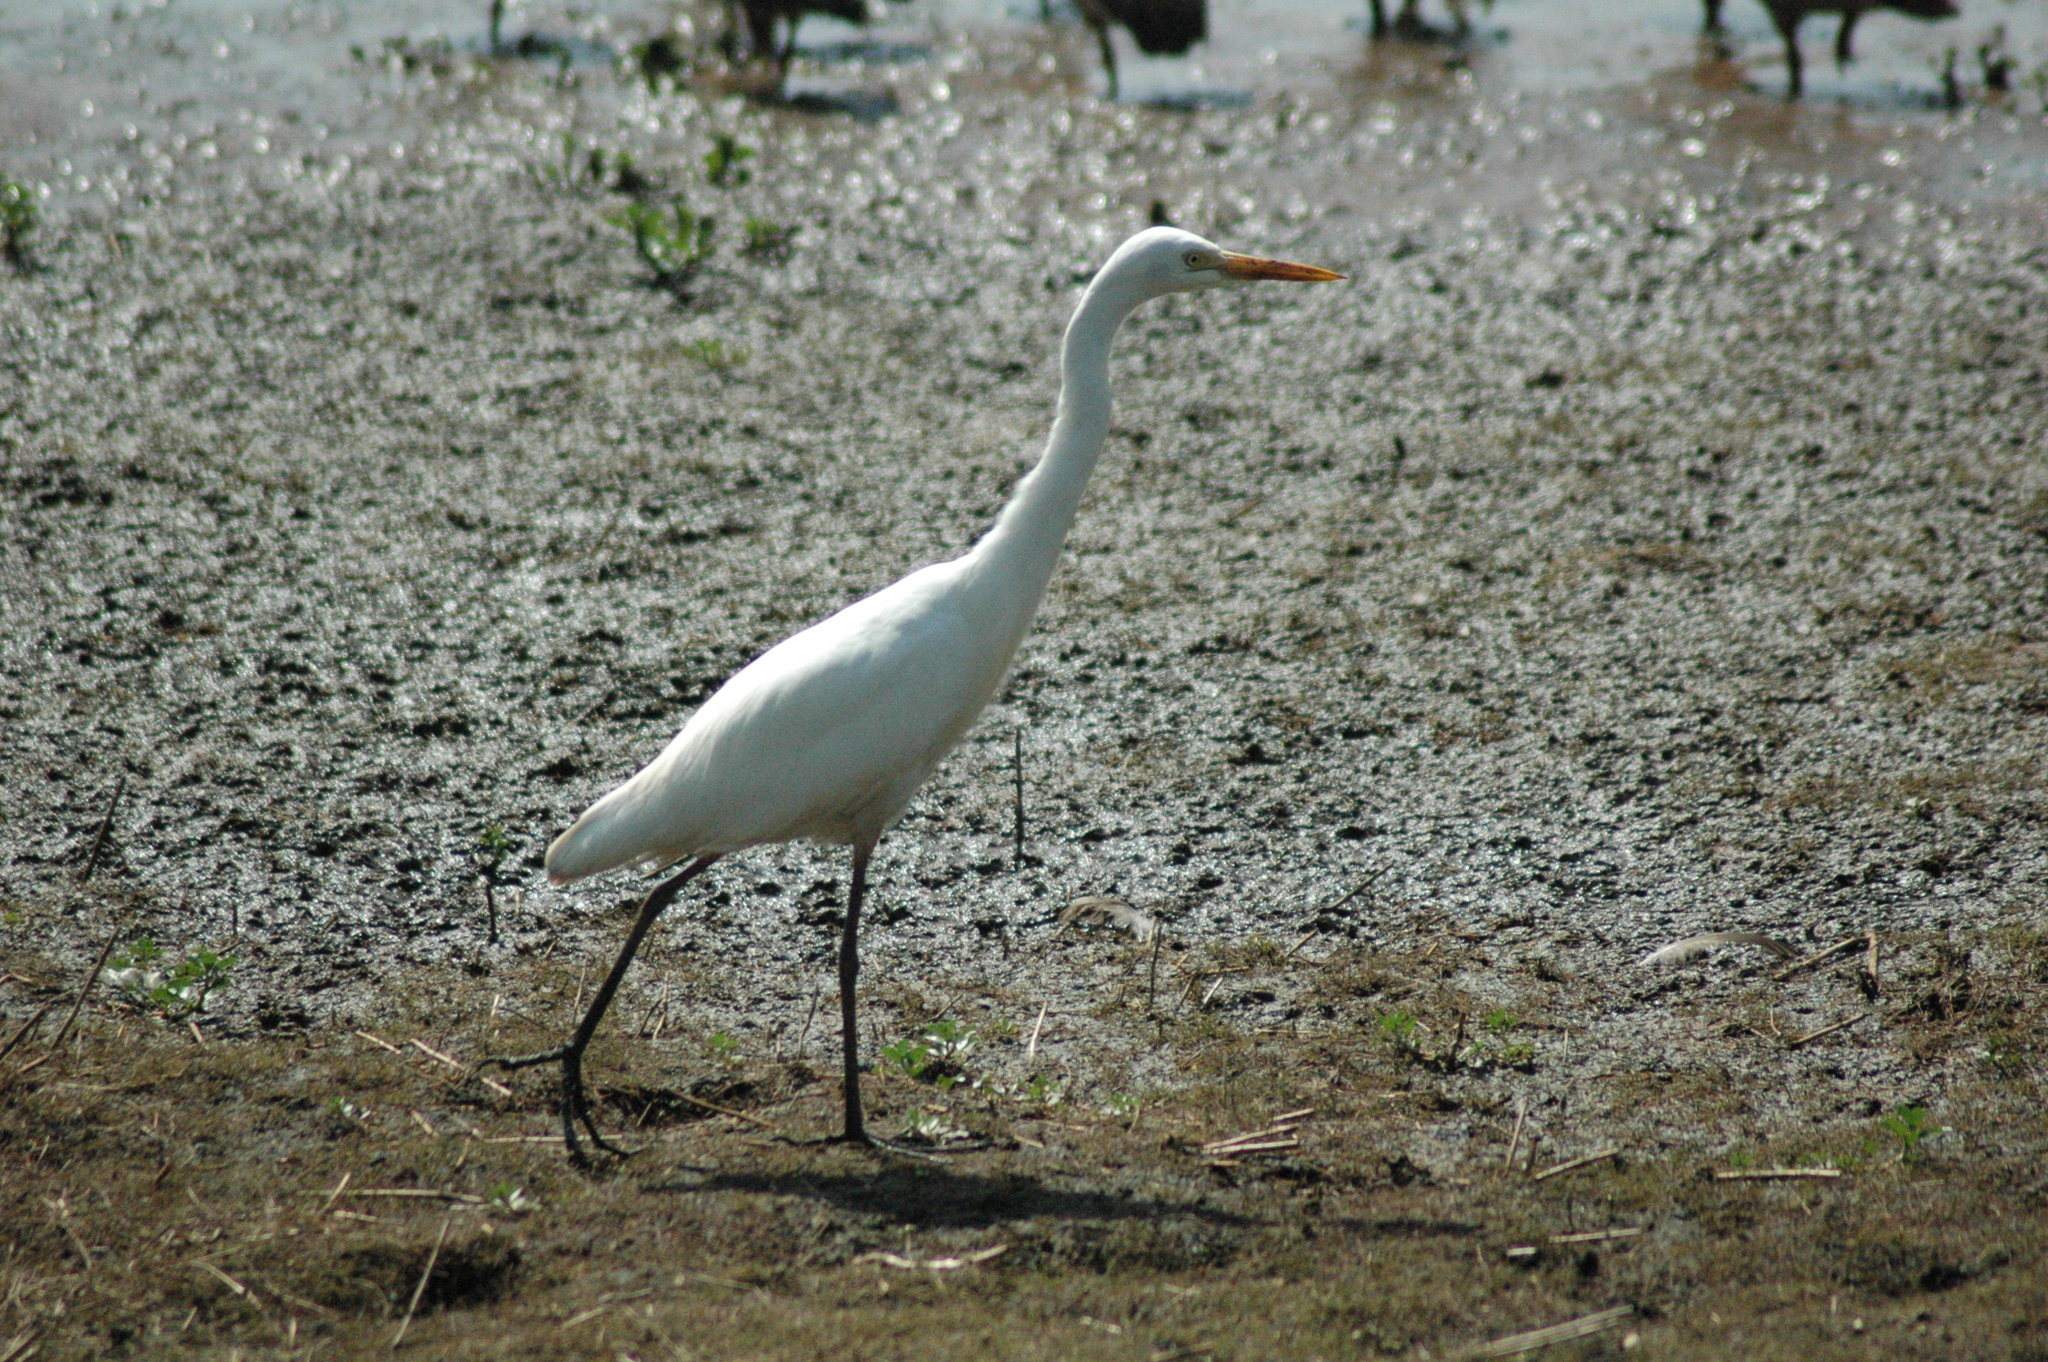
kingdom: Animalia
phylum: Chordata
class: Aves
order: Pelecaniformes
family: Ardeidae
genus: Egretta
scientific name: Egretta intermedia
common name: Intermediate egret
